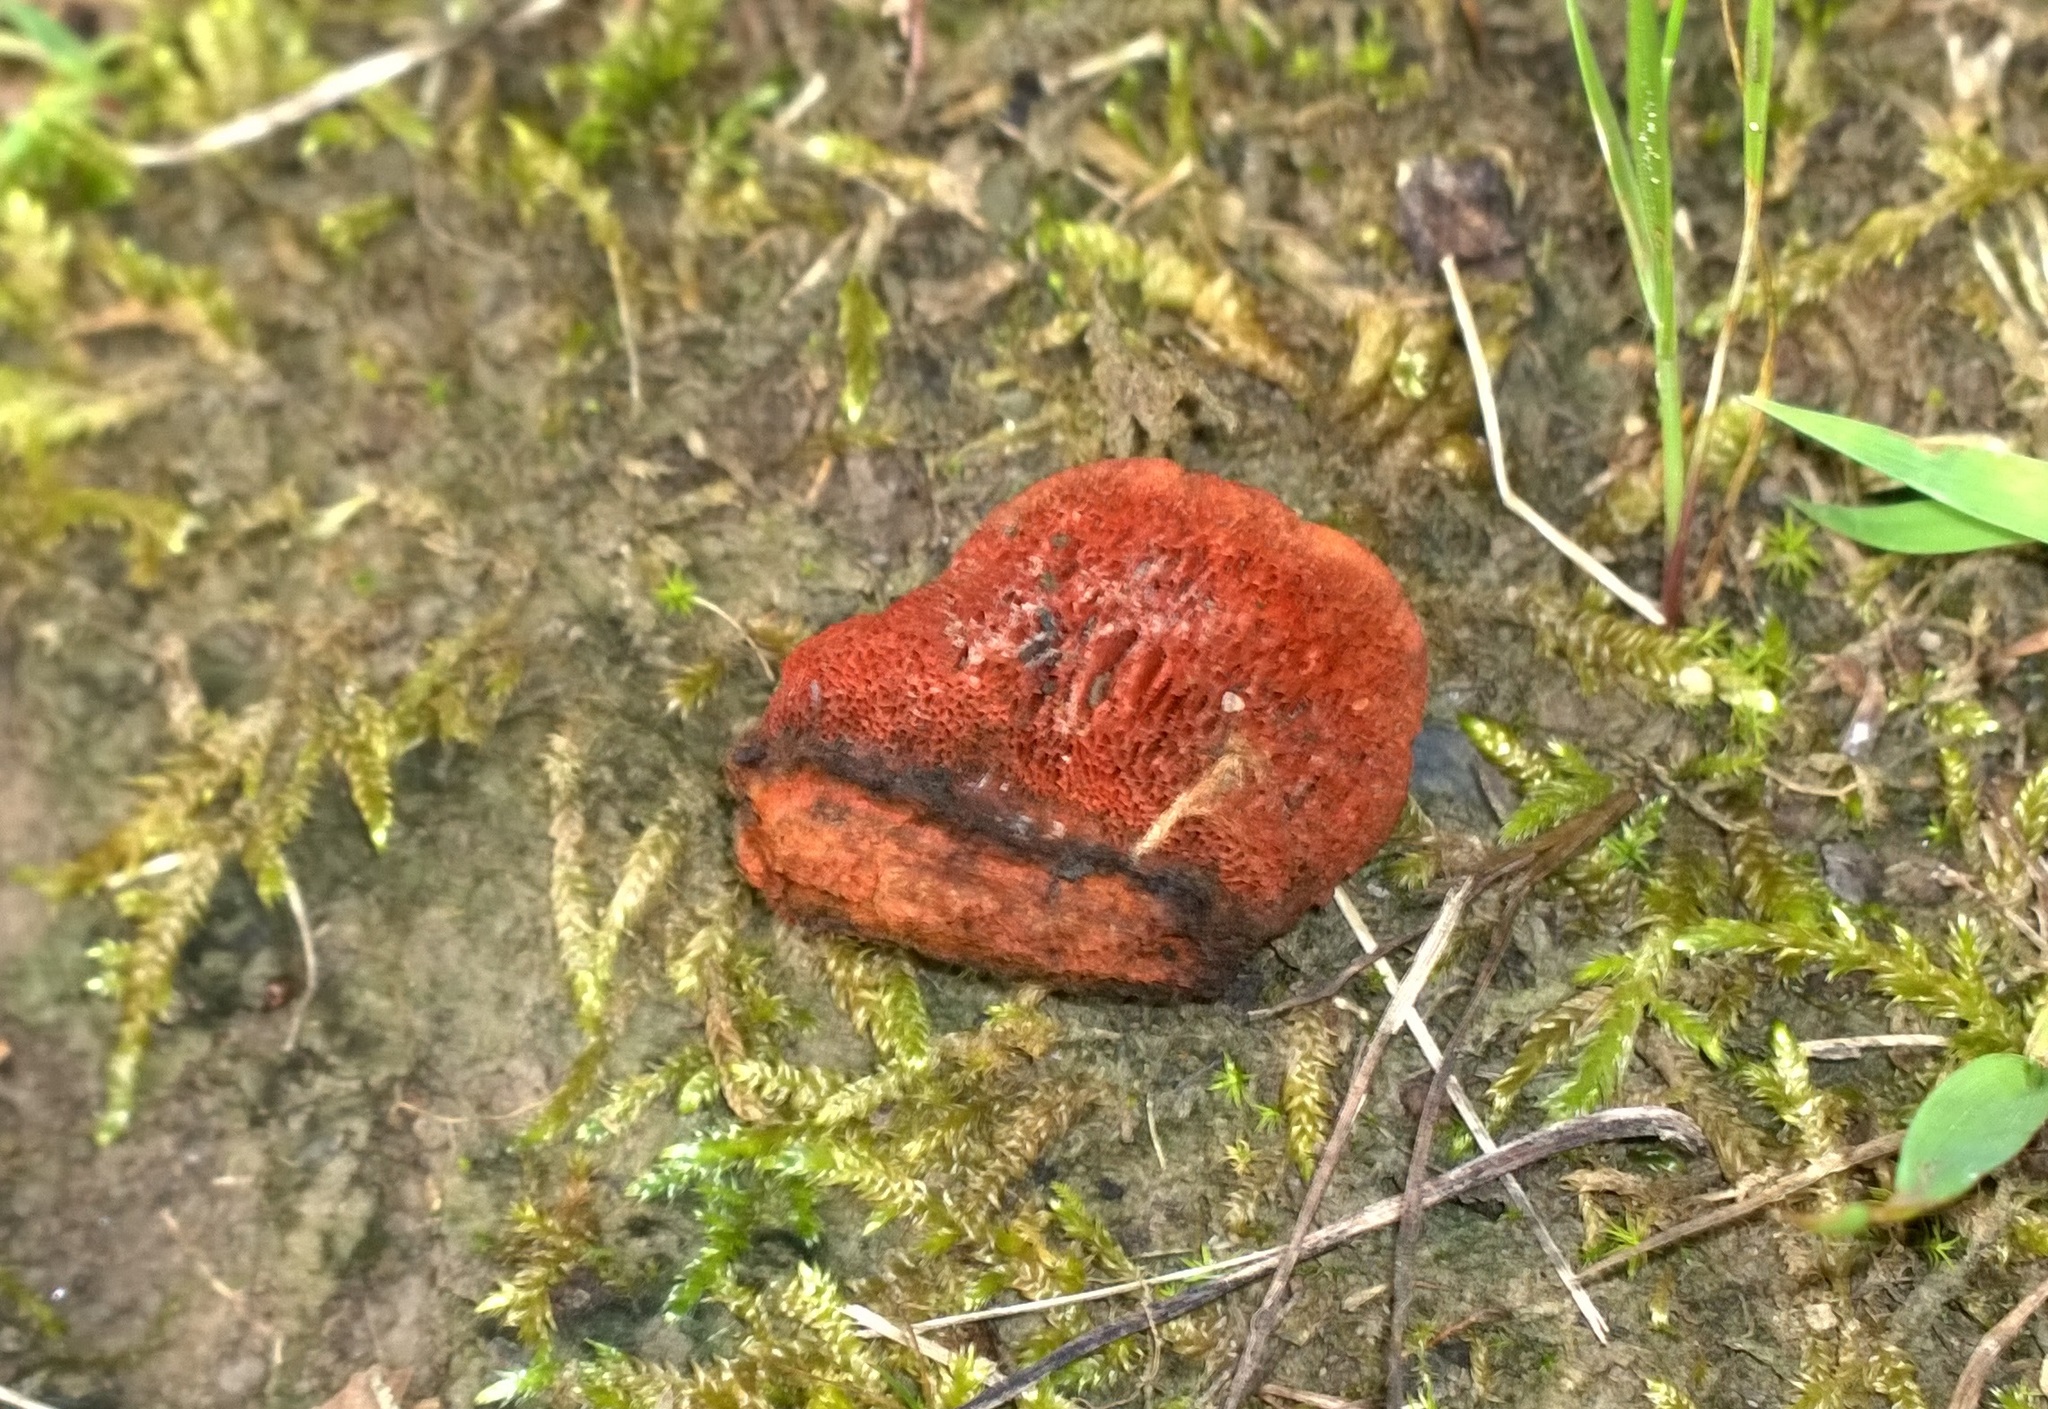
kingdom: Fungi
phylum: Basidiomycota
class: Agaricomycetes
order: Polyporales
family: Polyporaceae
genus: Trametes
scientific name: Trametes cinnabarina
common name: Northern cinnabar polypore
